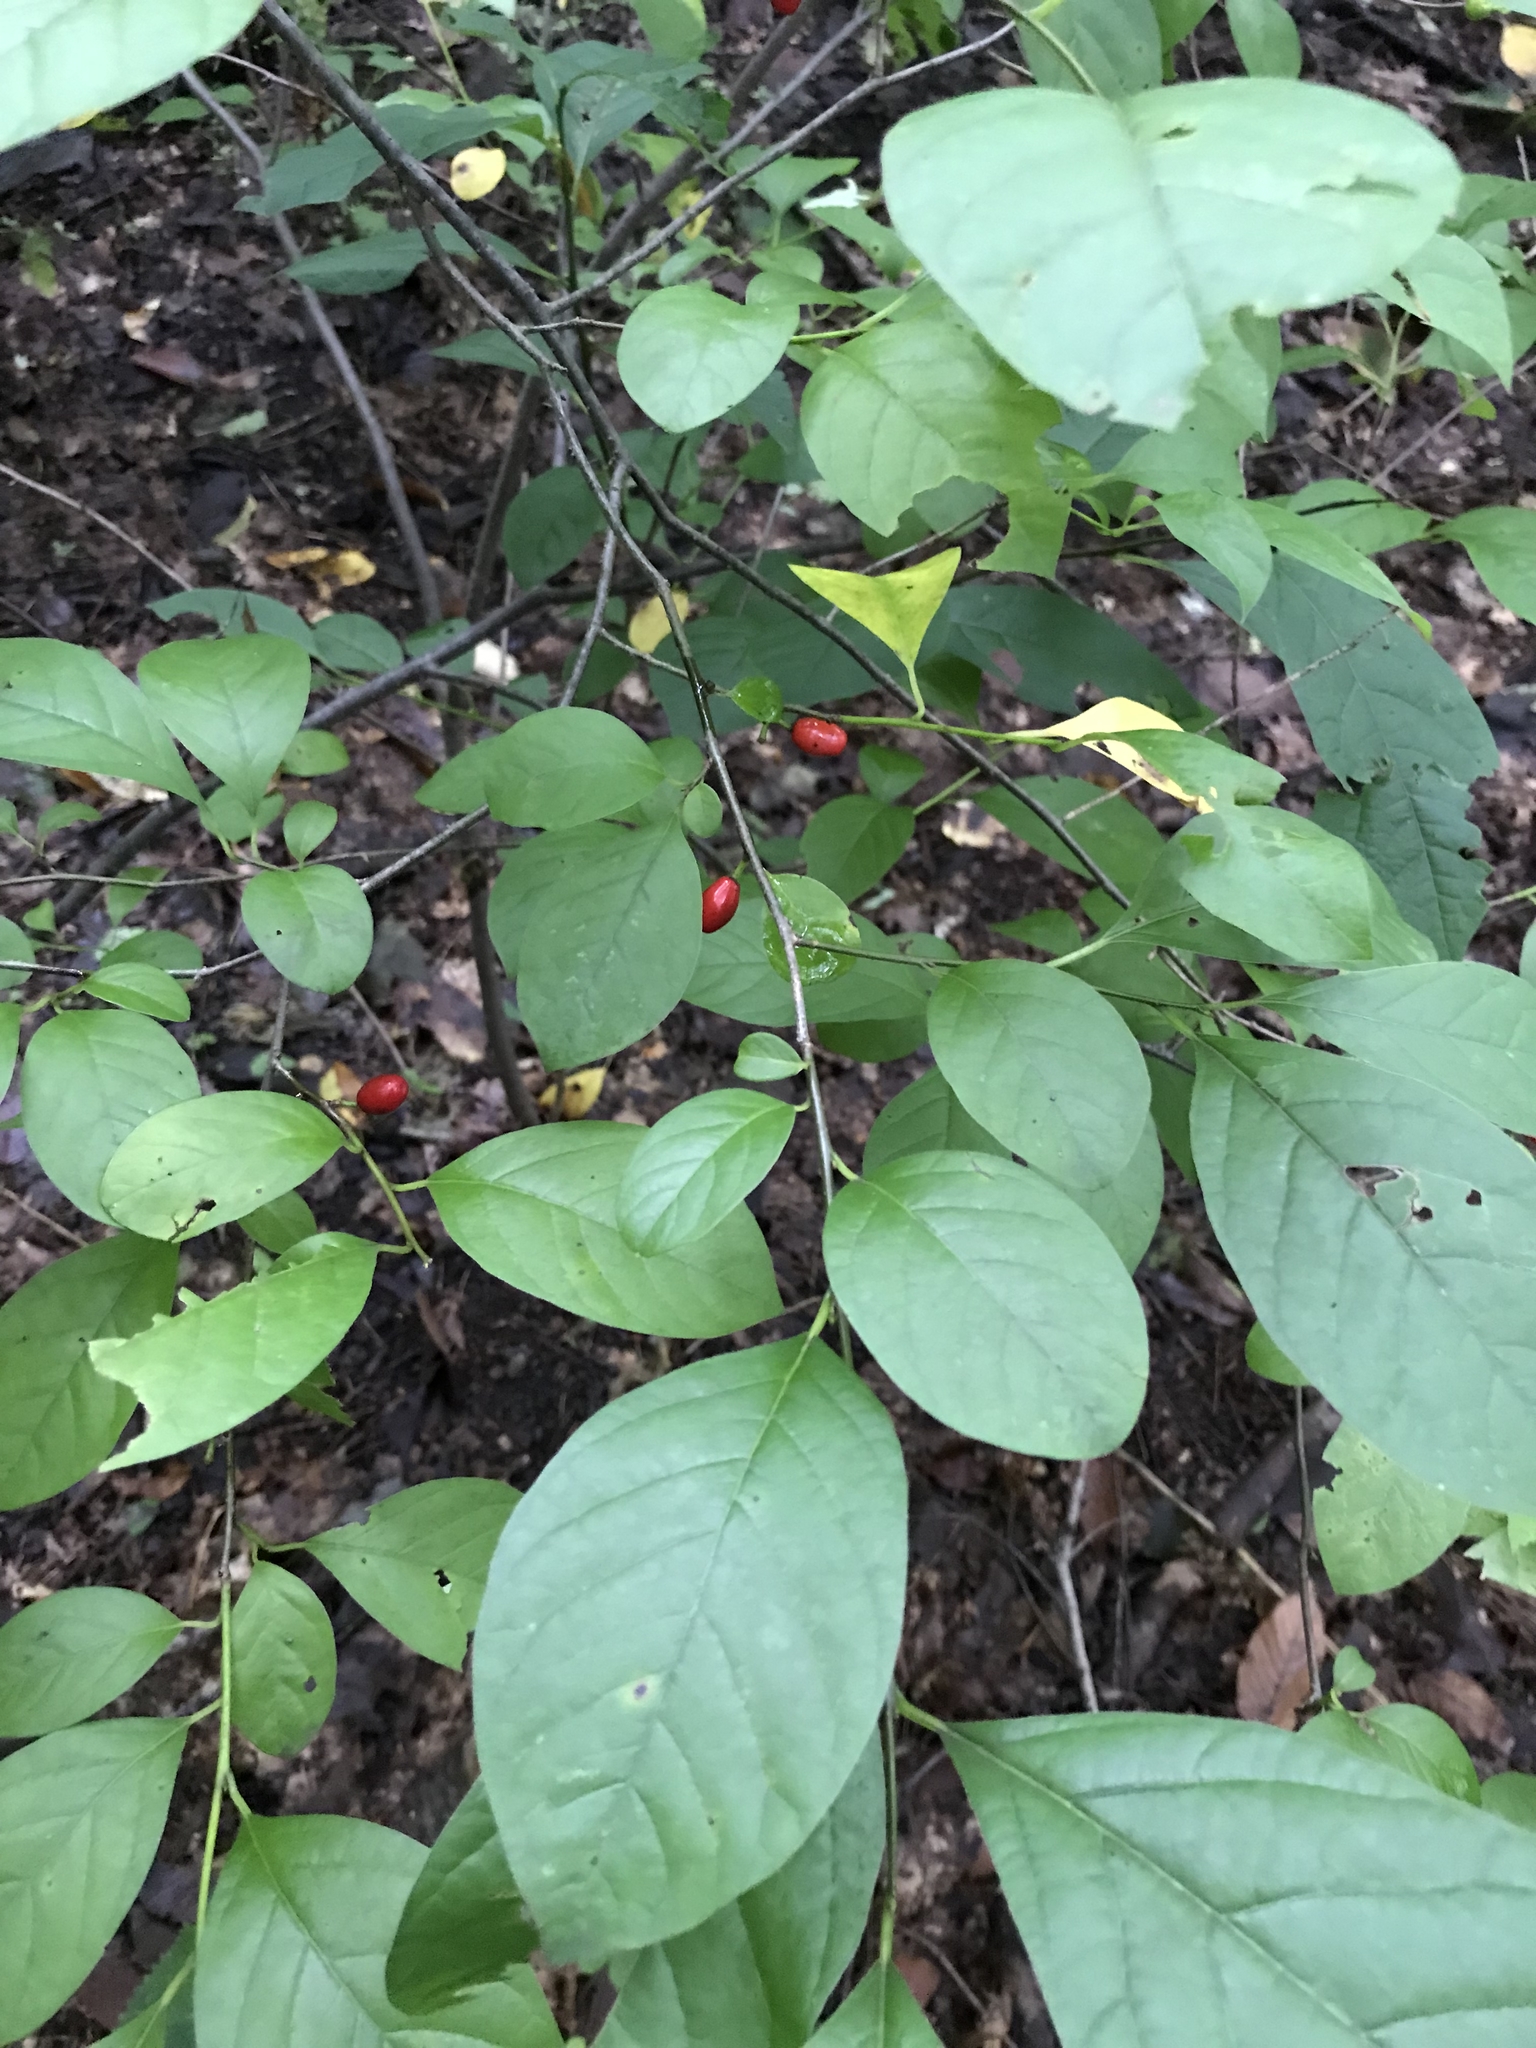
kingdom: Plantae
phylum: Tracheophyta
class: Magnoliopsida
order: Laurales
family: Lauraceae
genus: Lindera
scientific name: Lindera benzoin
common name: Spicebush
